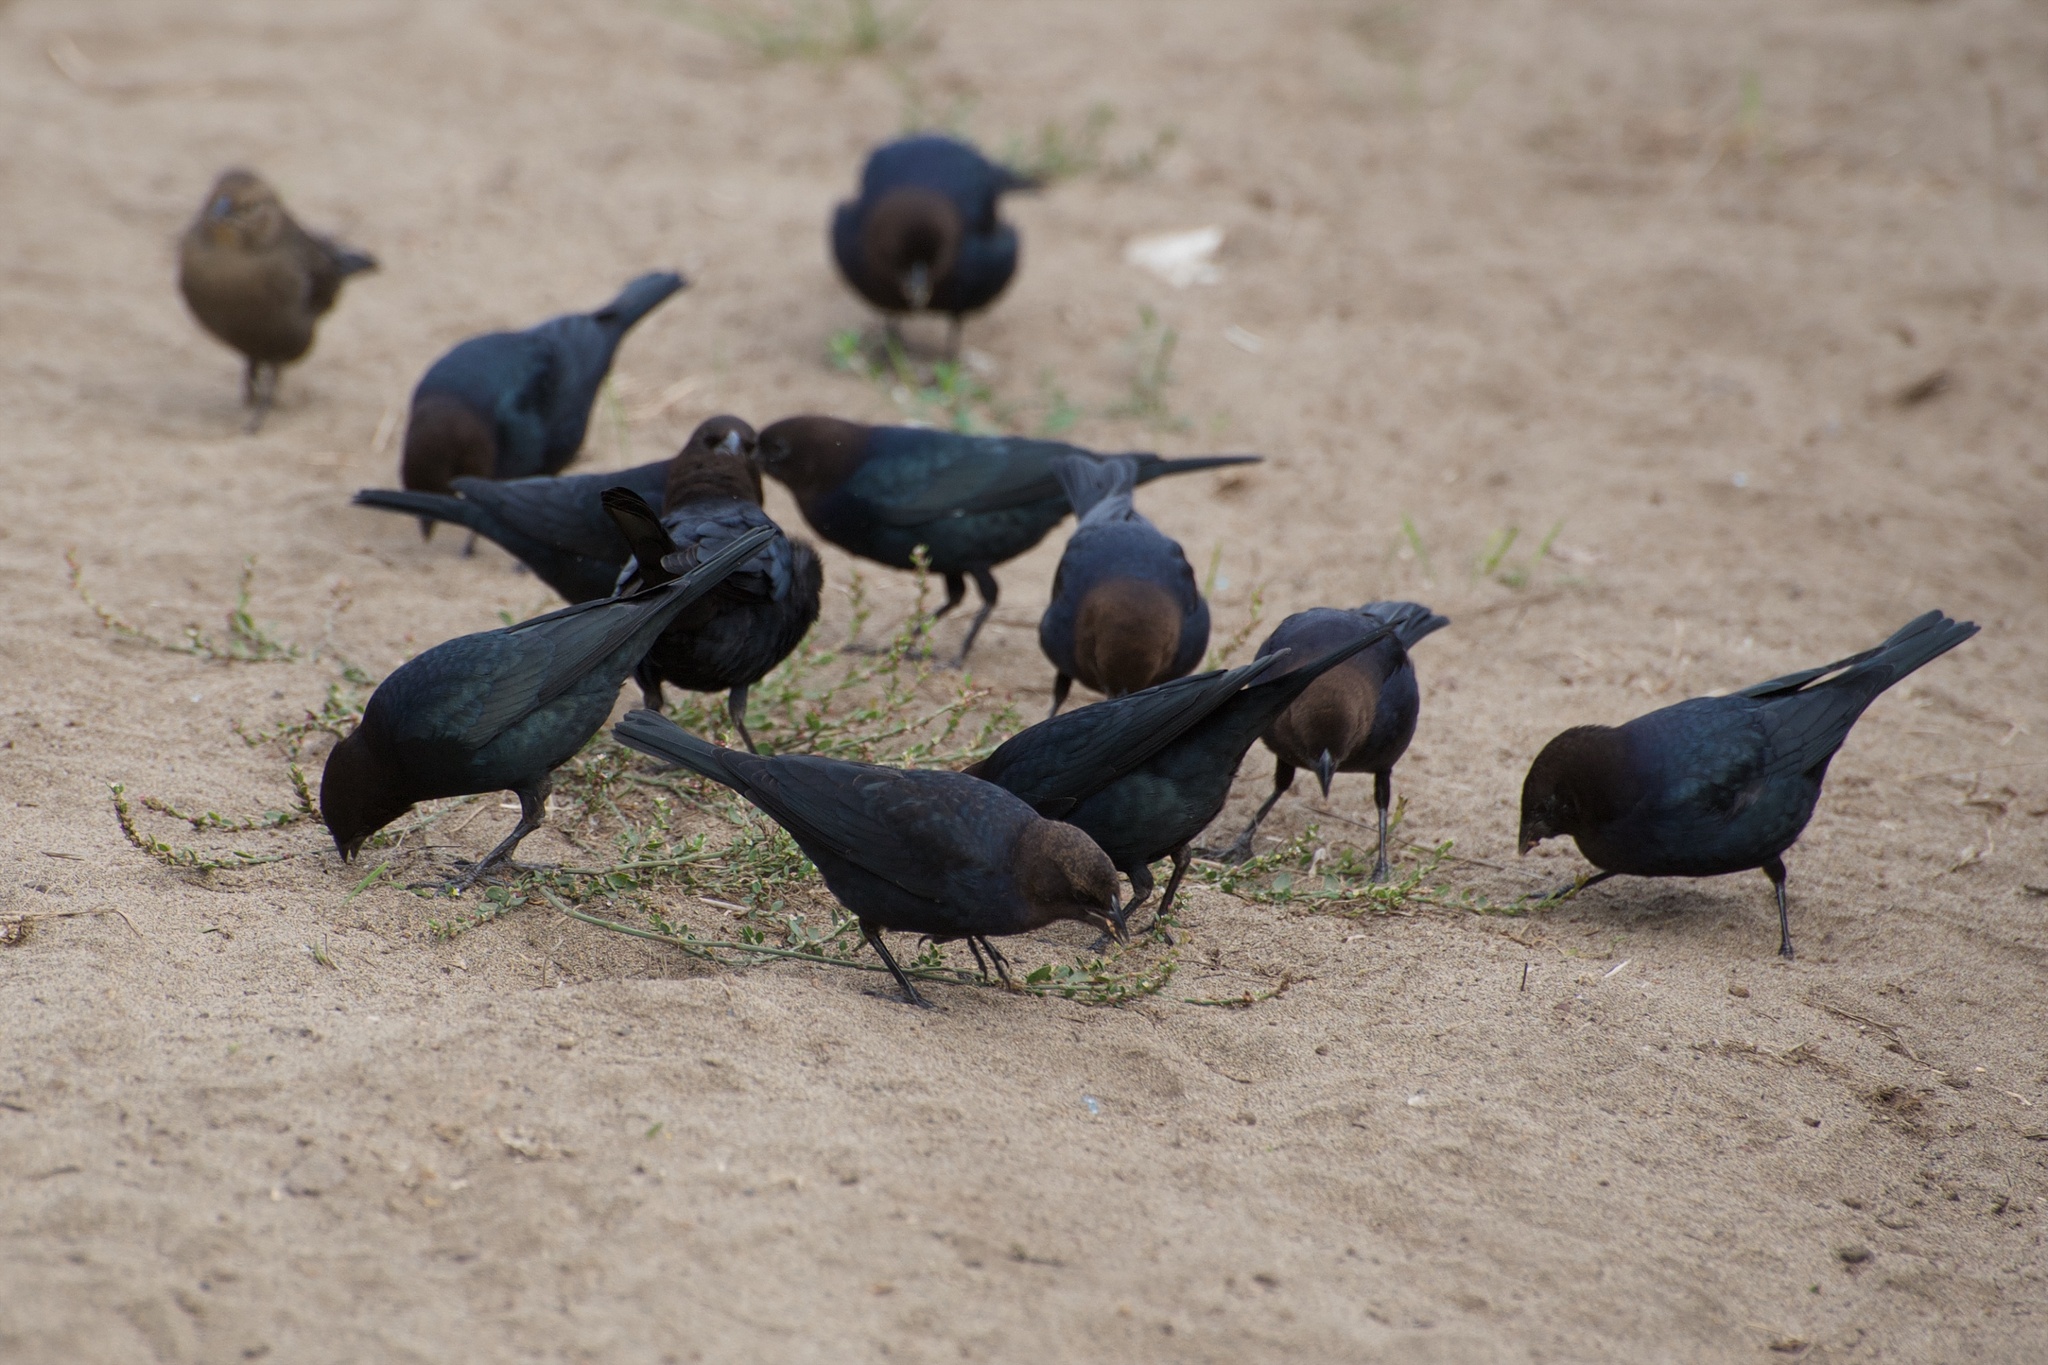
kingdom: Animalia
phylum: Chordata
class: Aves
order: Passeriformes
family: Icteridae
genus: Molothrus
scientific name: Molothrus ater
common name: Brown-headed cowbird
